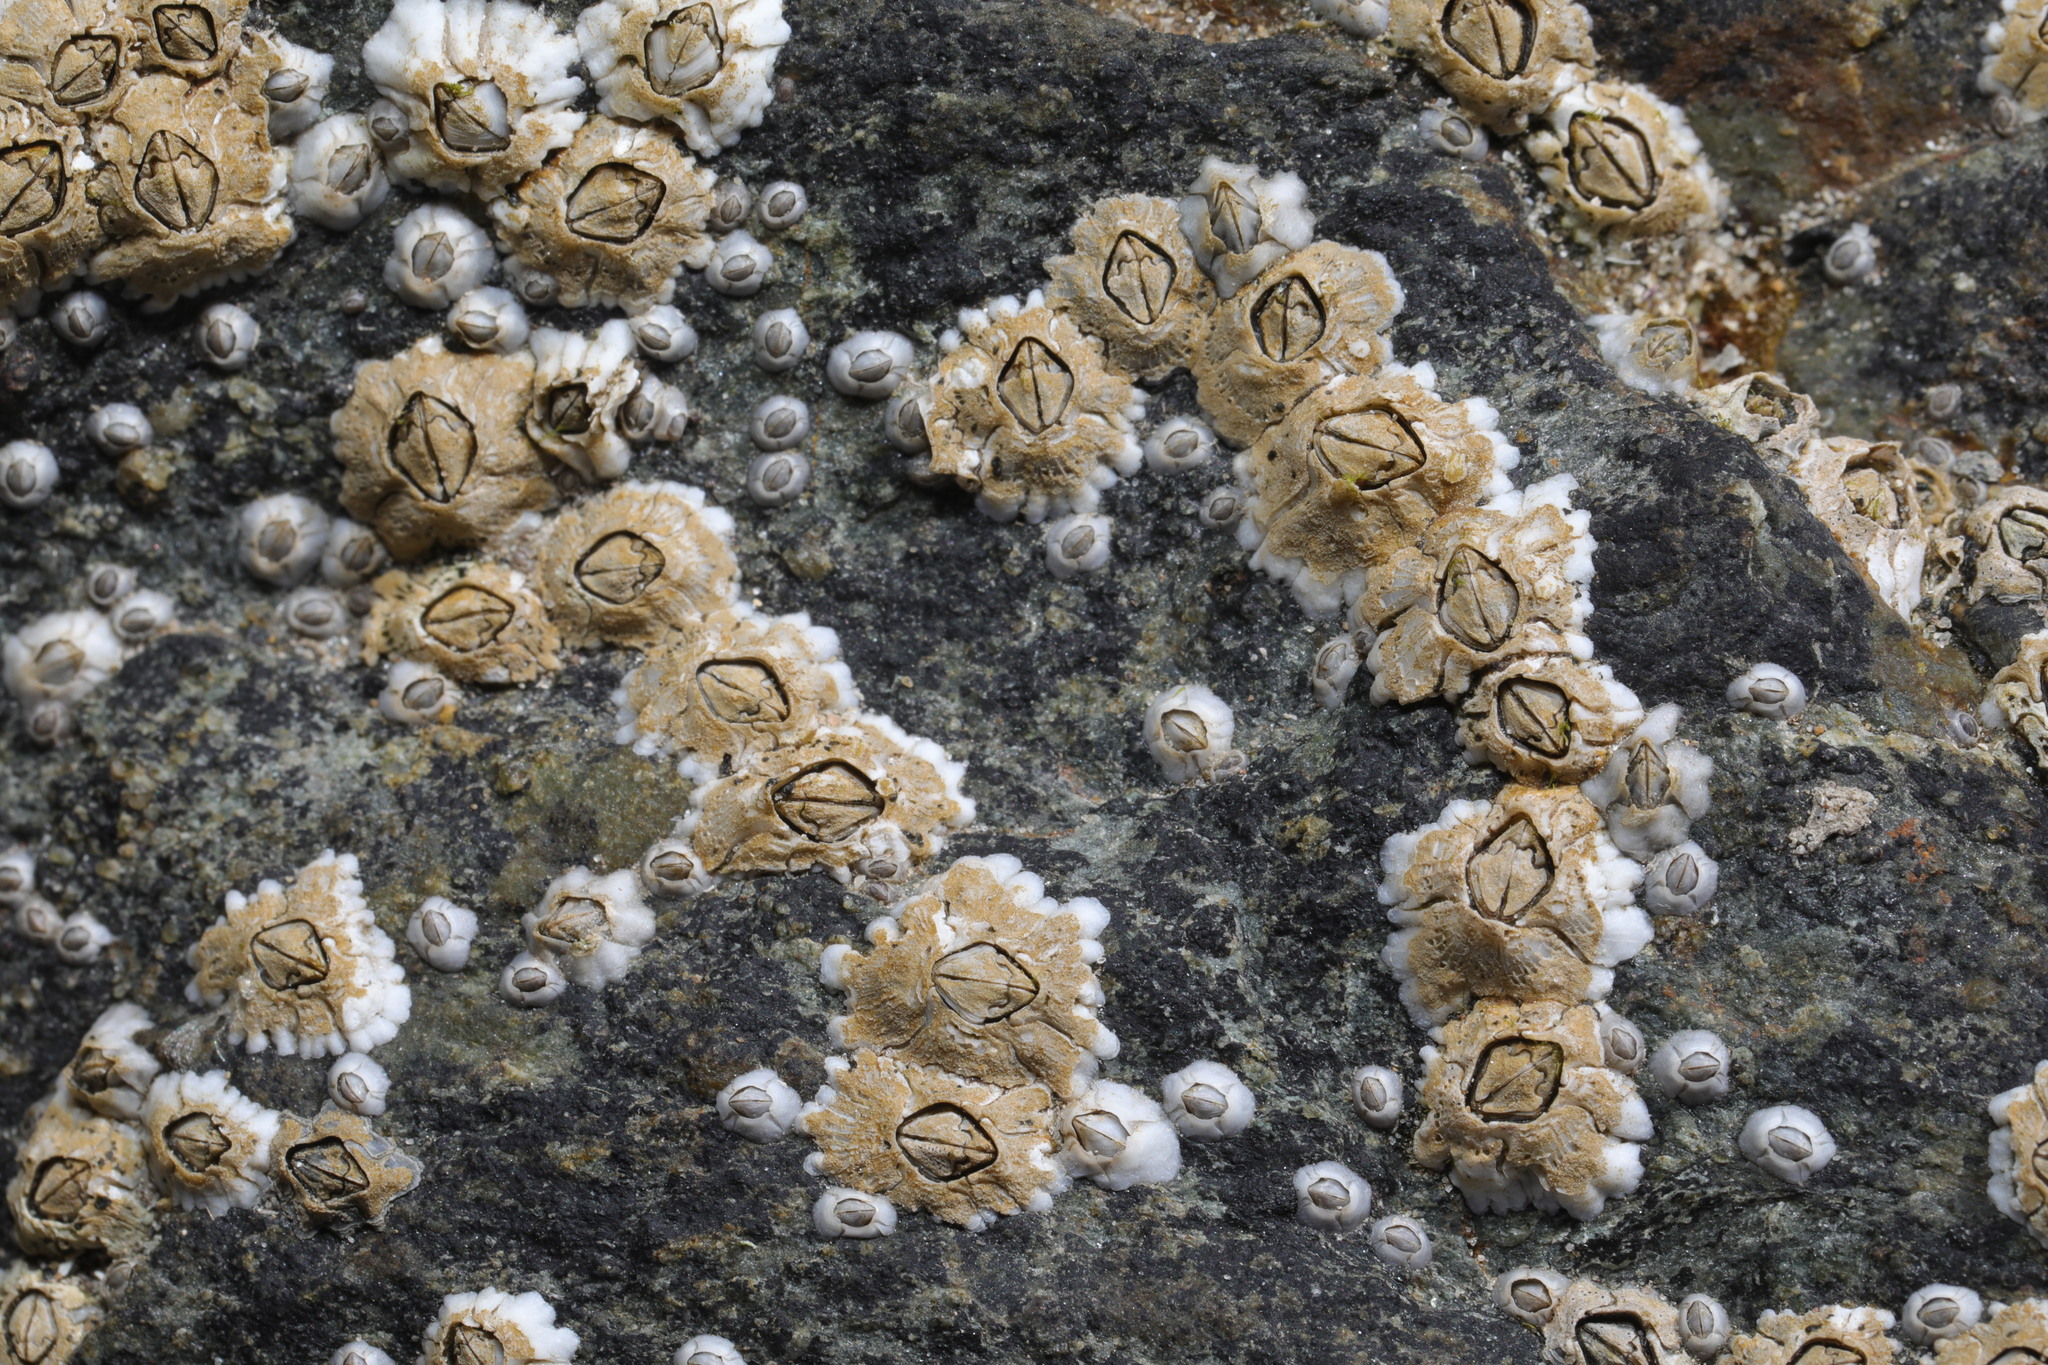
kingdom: Animalia
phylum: Arthropoda
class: Maxillopoda
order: Sessilia
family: Archaeobalanidae
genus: Semibalanus
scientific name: Semibalanus balanoides
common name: Acorn barnacle
